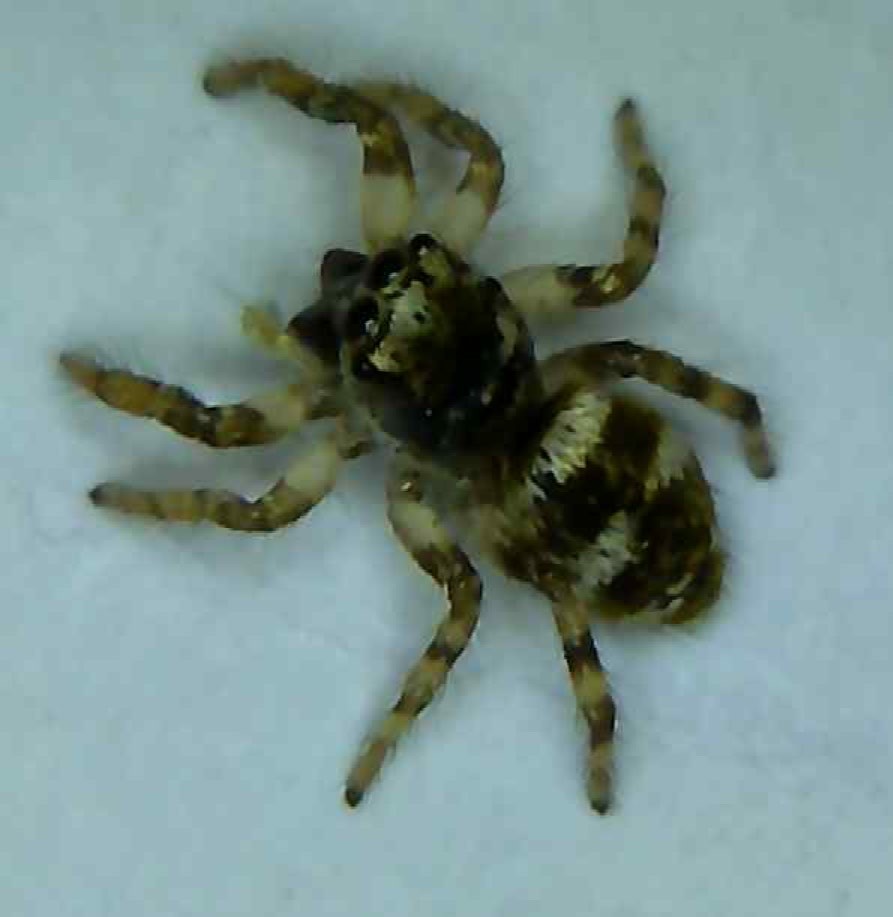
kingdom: Animalia
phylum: Arthropoda
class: Arachnida
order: Araneae
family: Salticidae
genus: Salticus
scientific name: Salticus scenicus
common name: Zebra jumper
